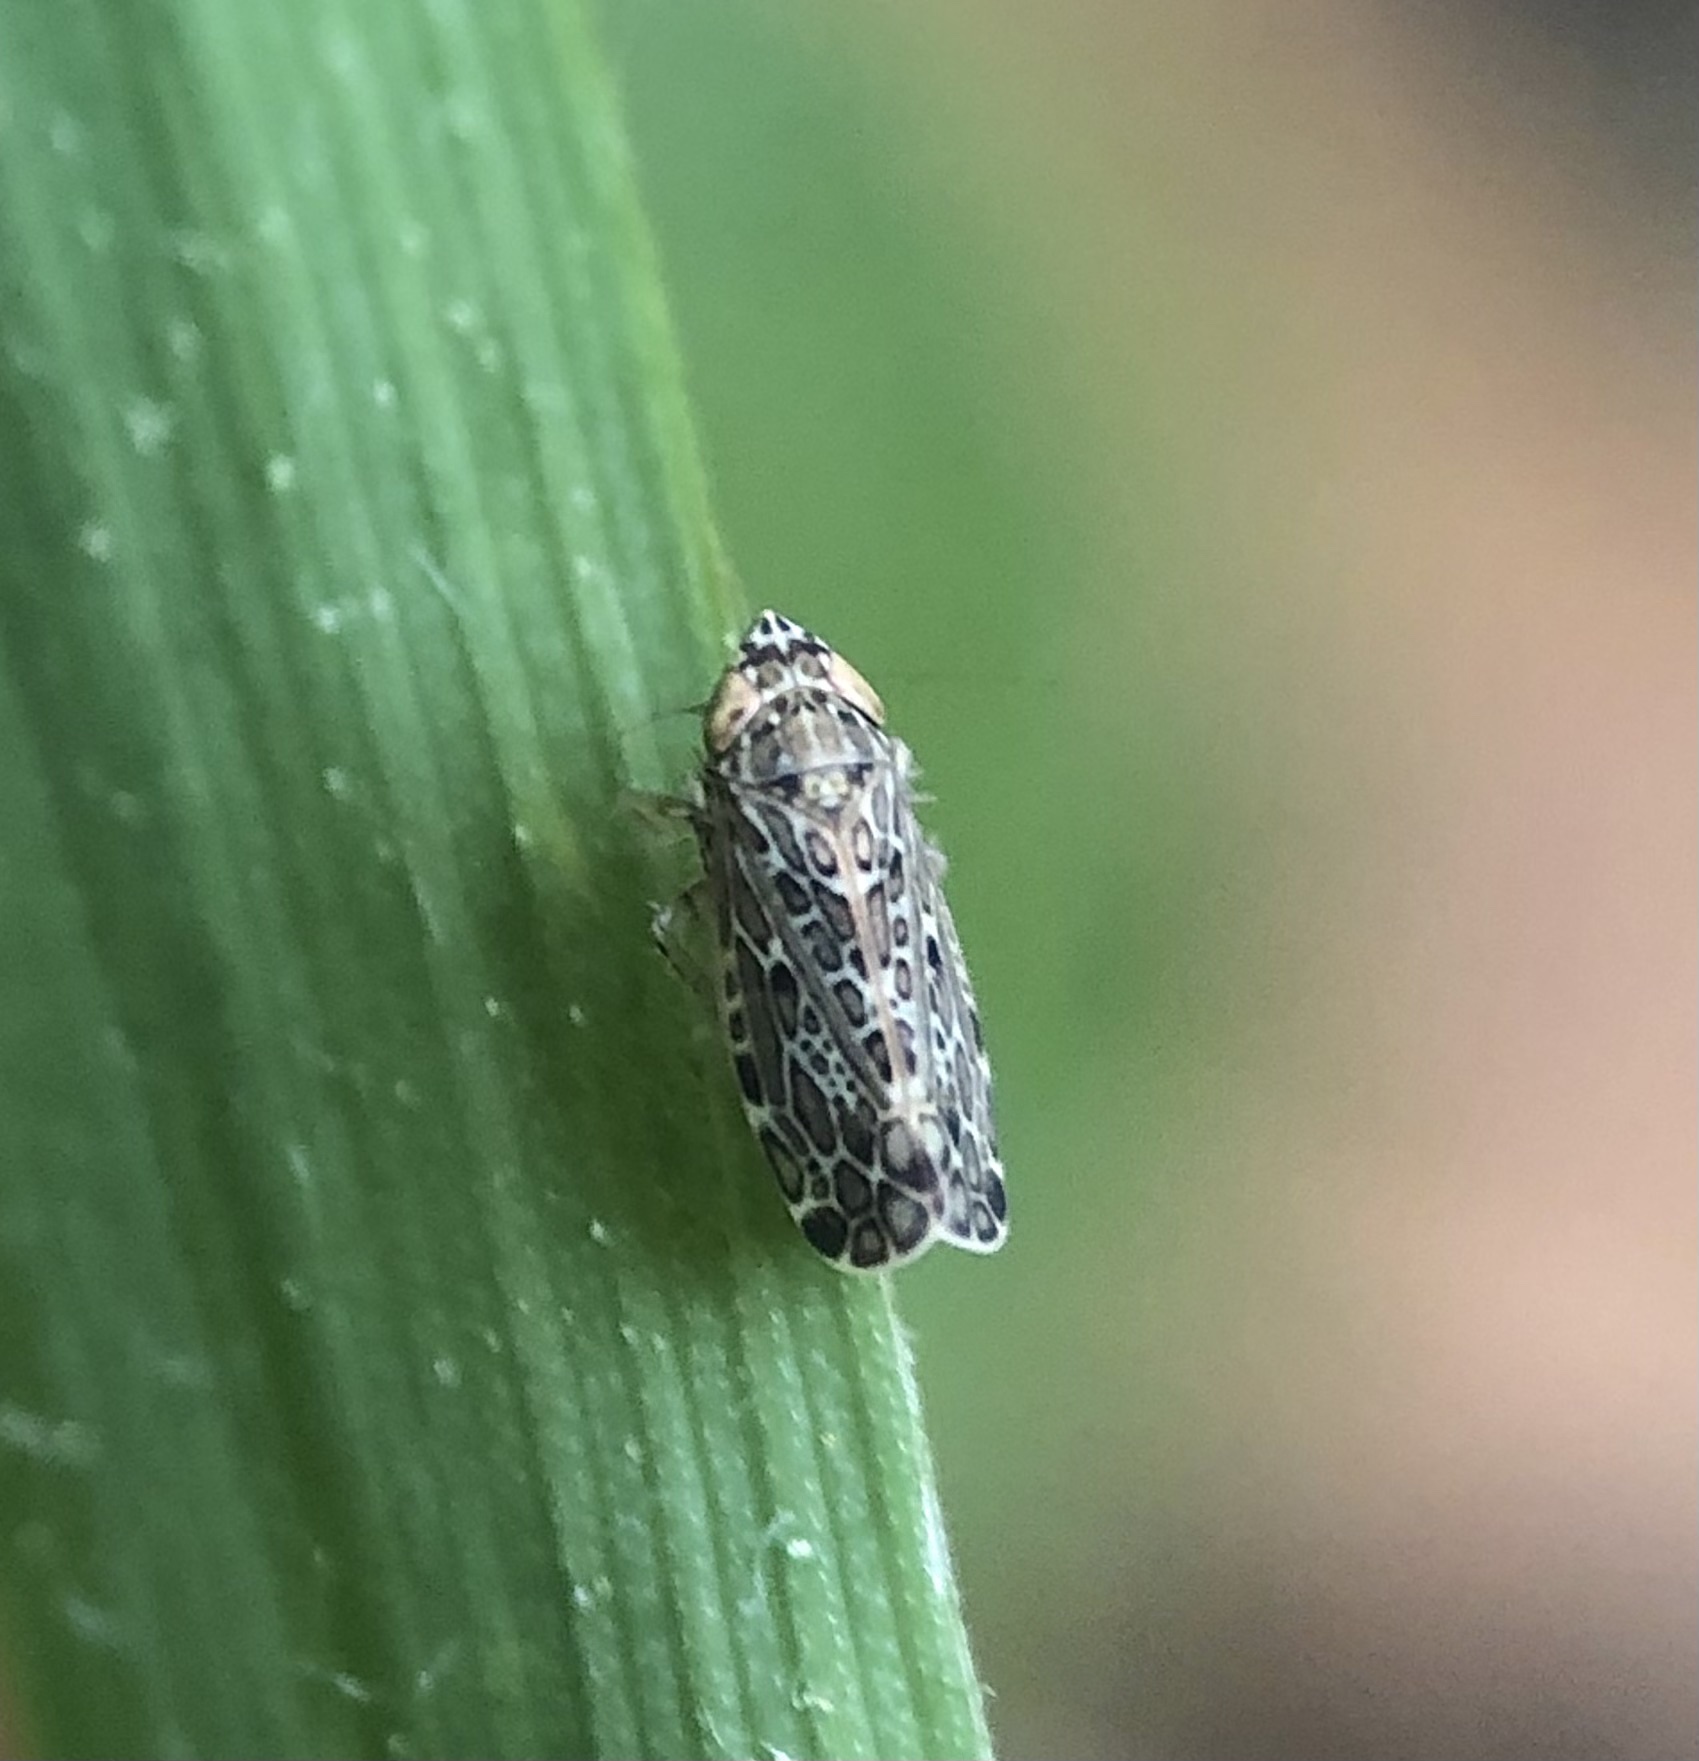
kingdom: Animalia
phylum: Arthropoda
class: Insecta
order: Hemiptera
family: Cicadellidae
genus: Polyamia
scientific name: Polyamia weedi
